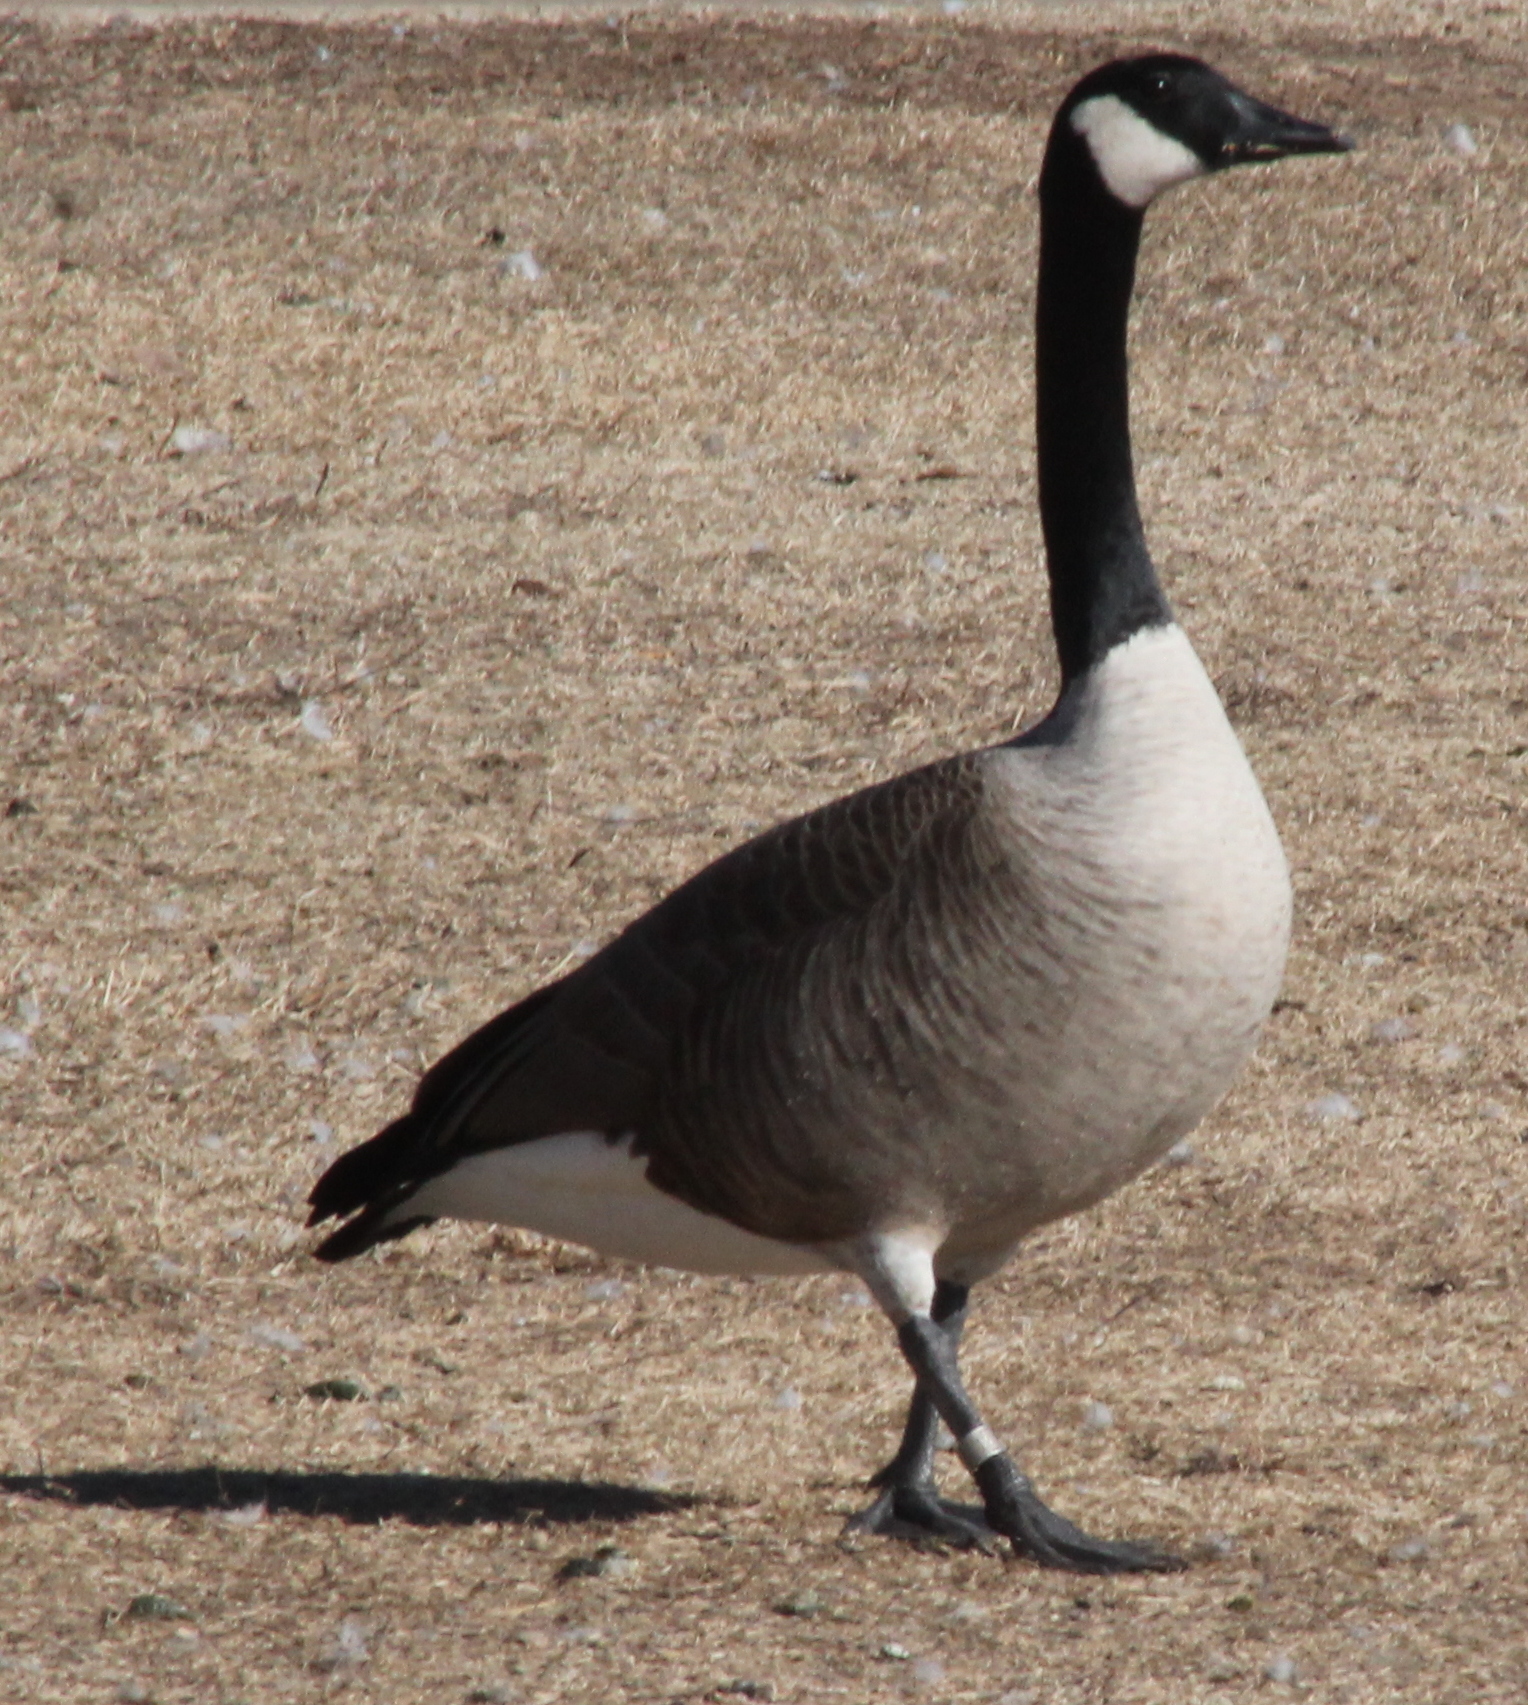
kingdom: Animalia
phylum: Chordata
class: Aves
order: Anseriformes
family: Anatidae
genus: Branta
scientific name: Branta canadensis
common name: Canada goose
